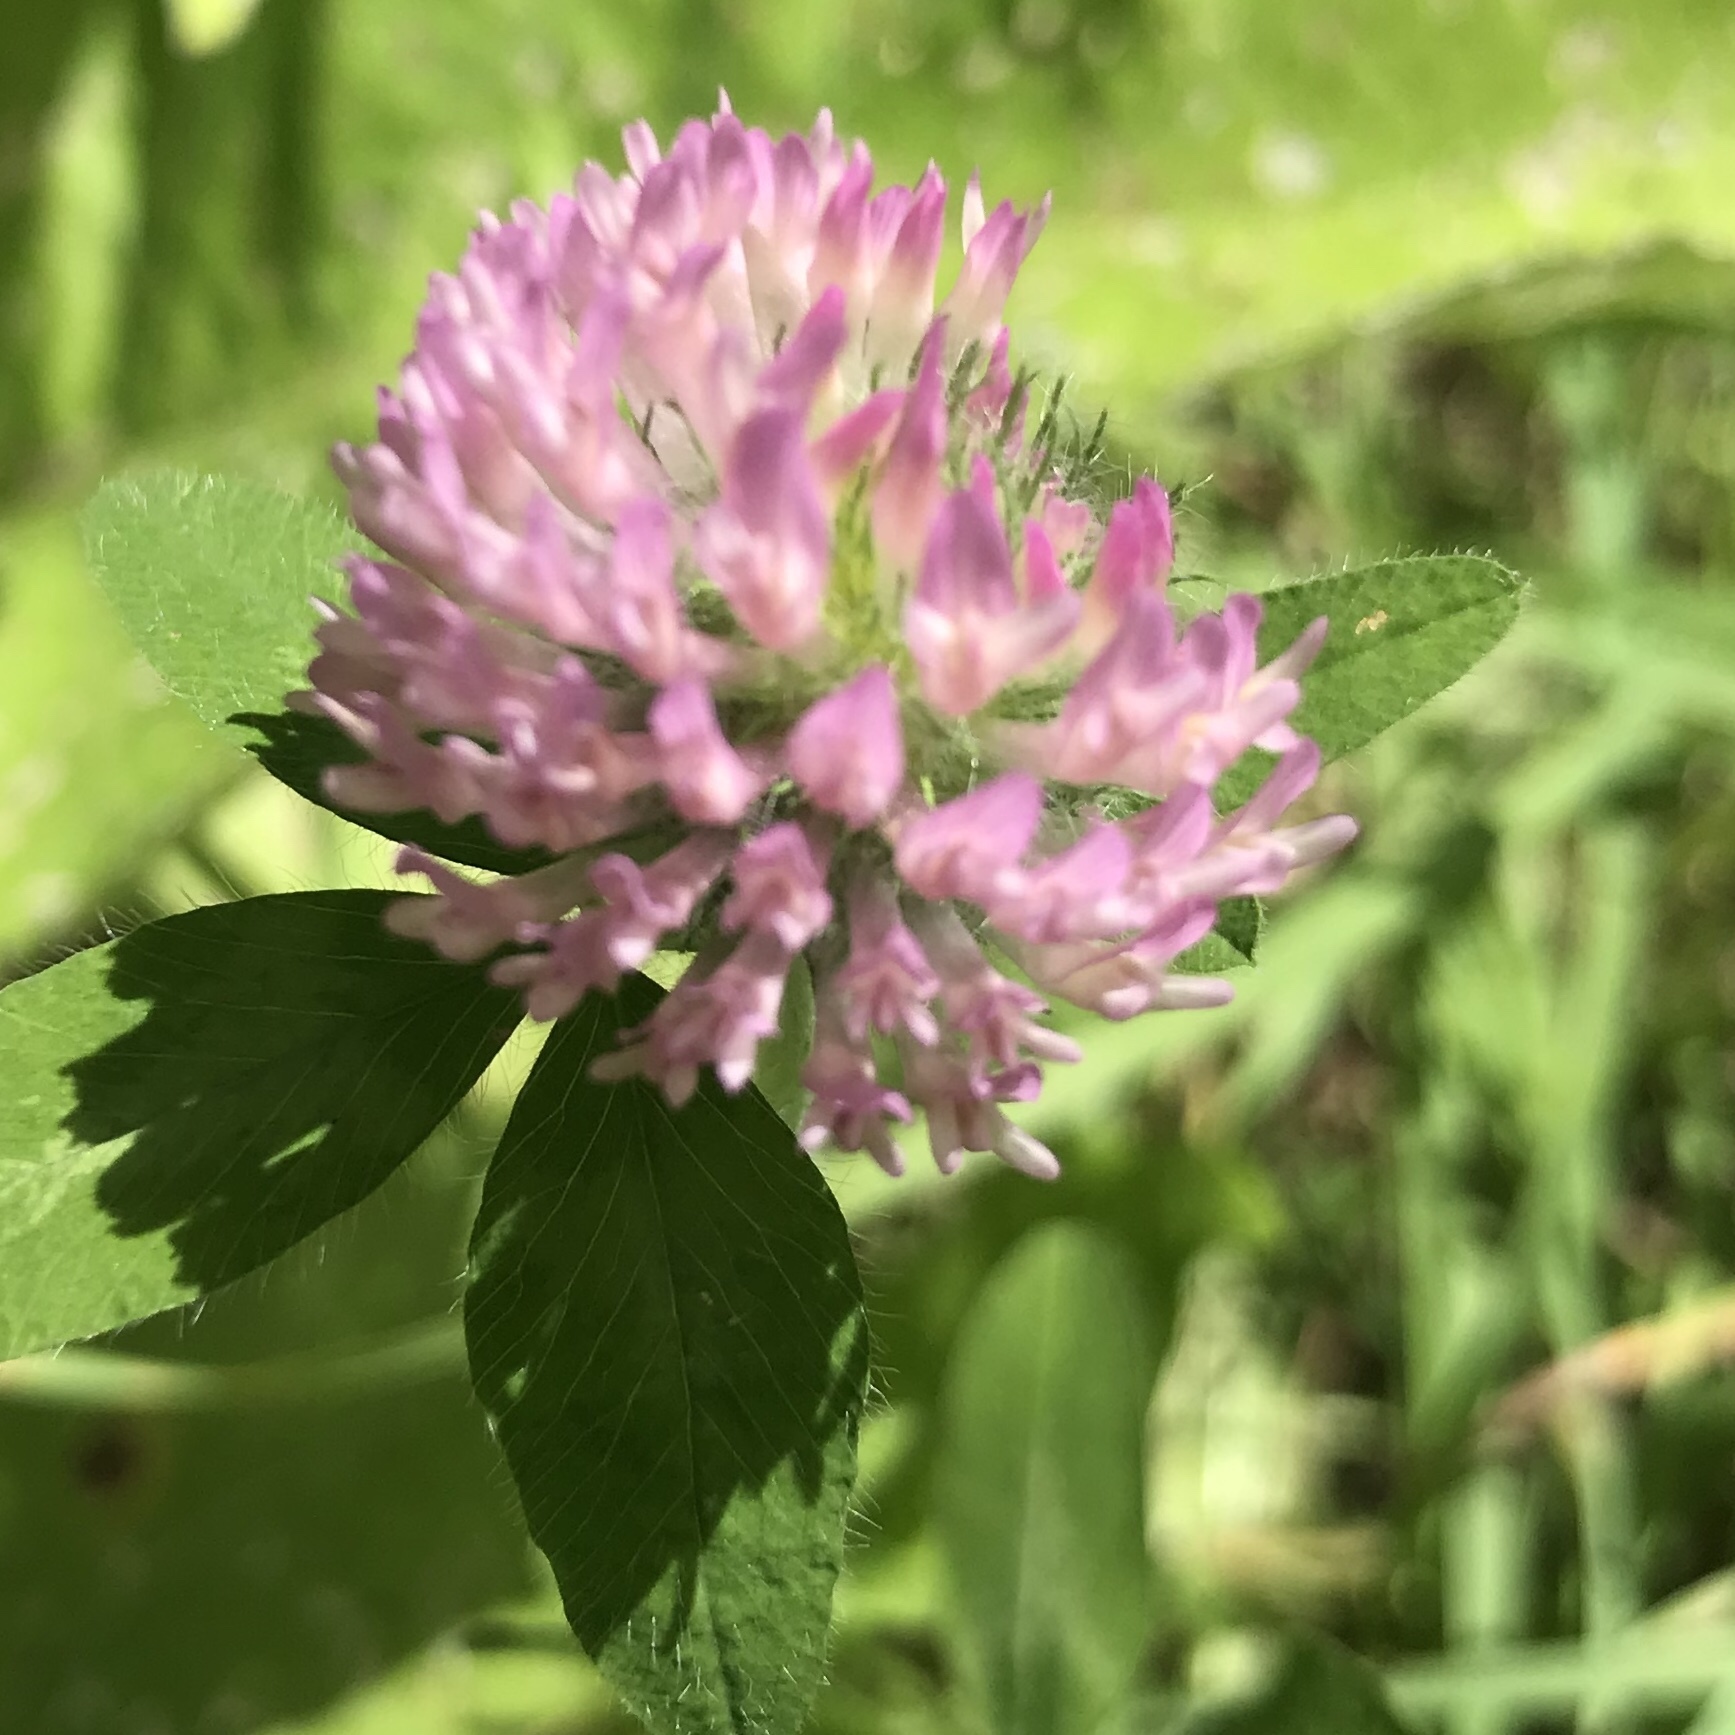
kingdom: Plantae
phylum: Tracheophyta
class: Magnoliopsida
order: Fabales
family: Fabaceae
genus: Trifolium
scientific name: Trifolium pratense
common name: Red clover
